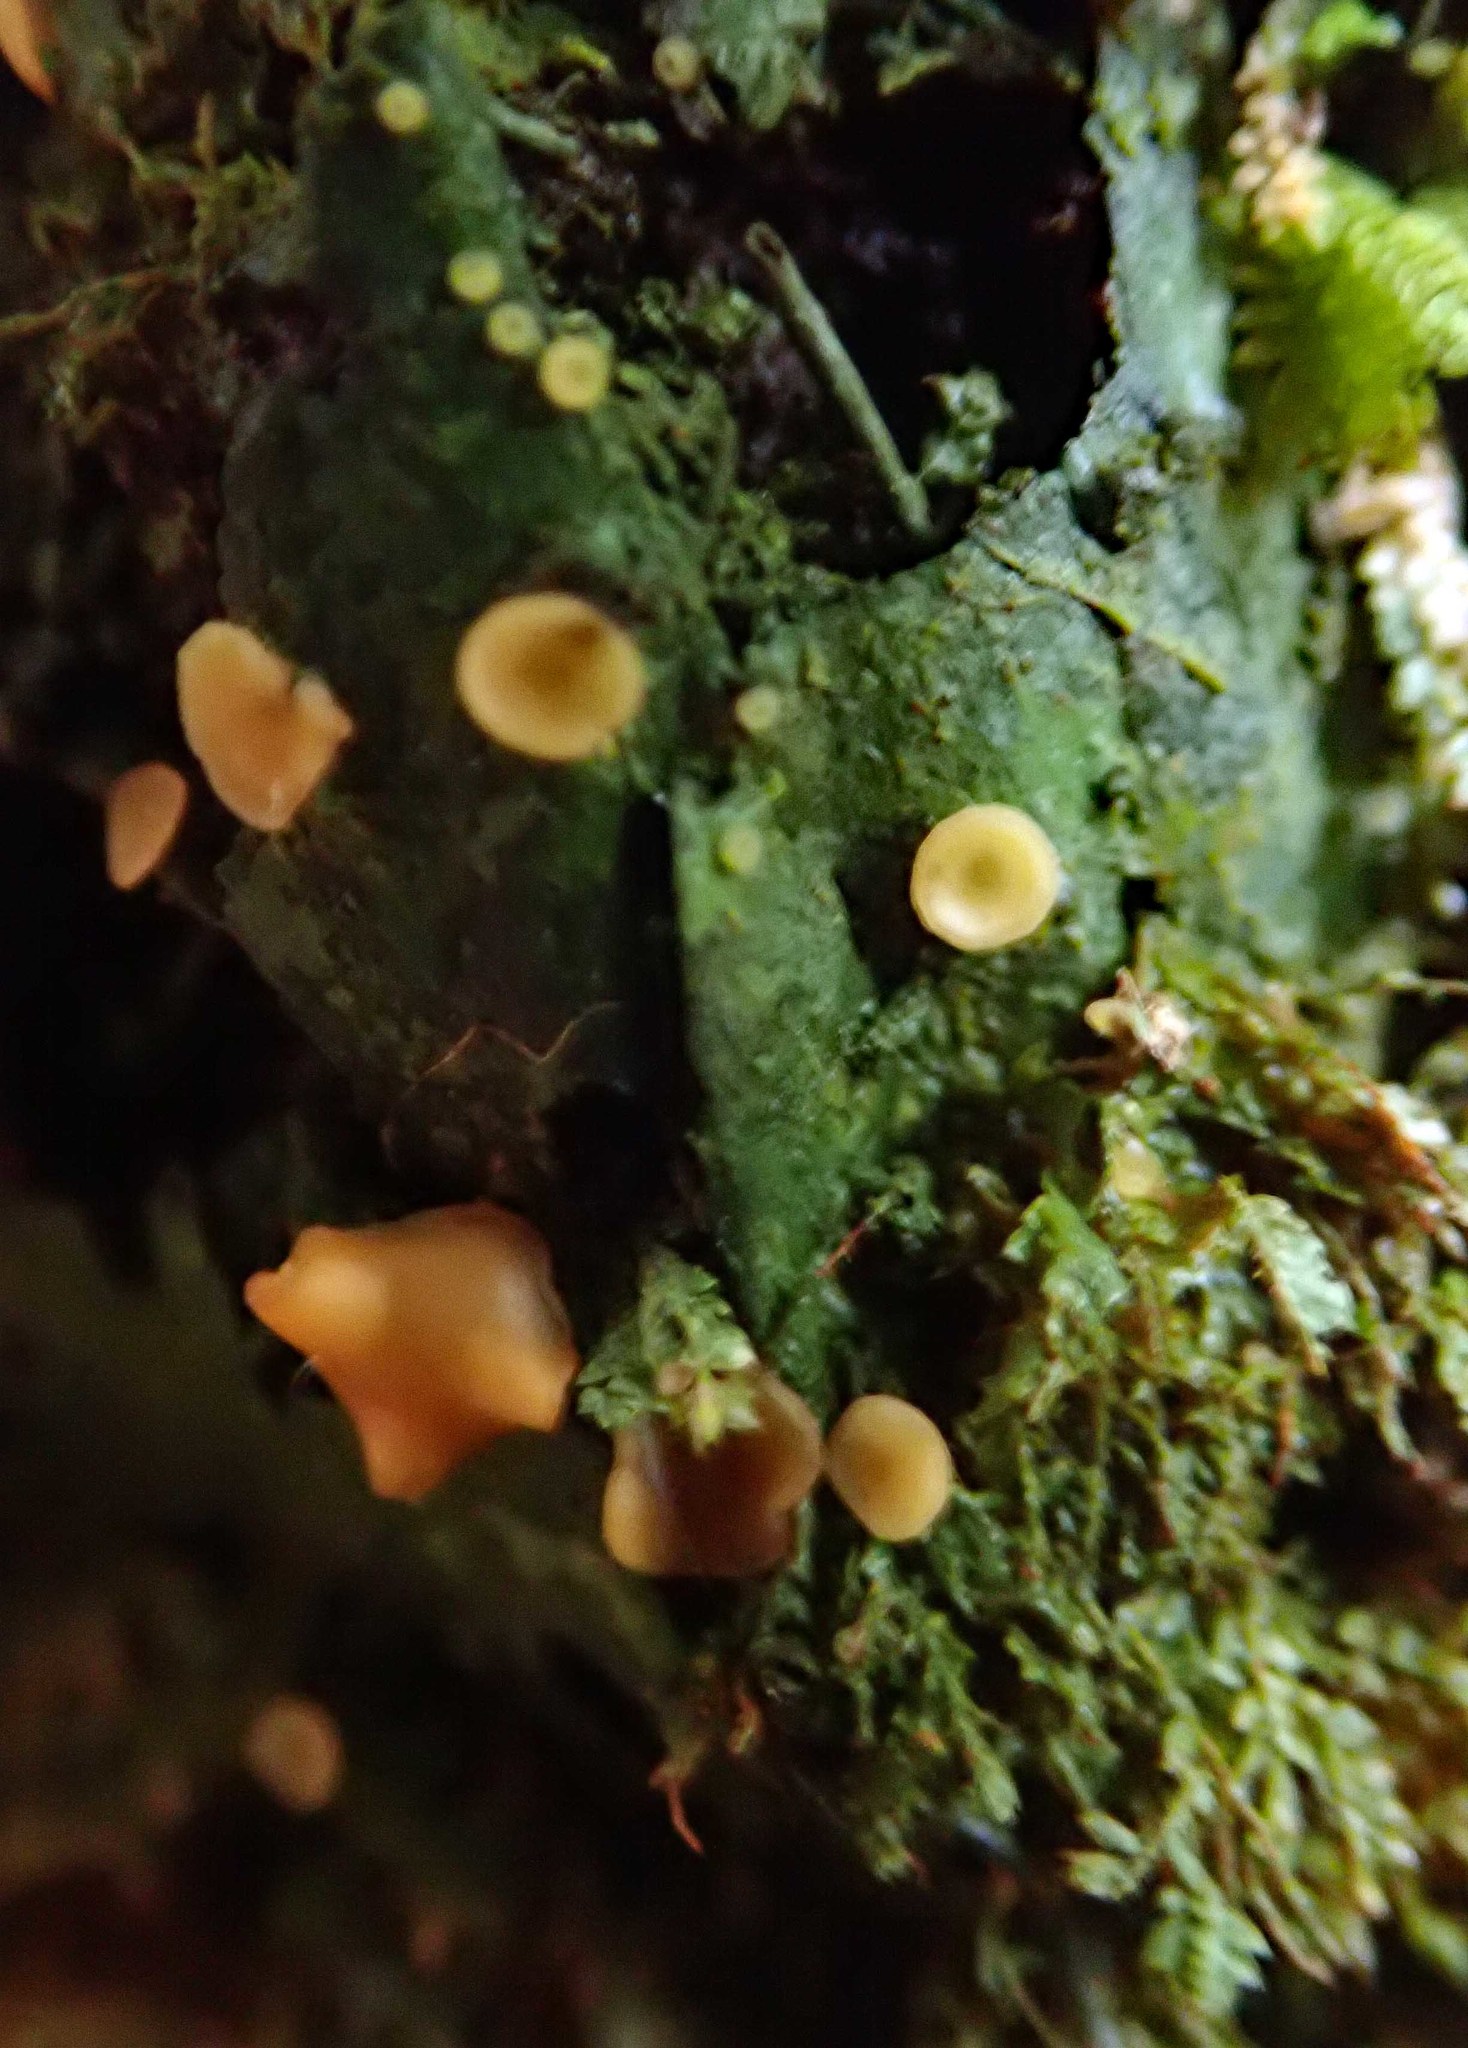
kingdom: Fungi
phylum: Ascomycota
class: Lecanoromycetes
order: Ostropales
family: Coenogoniaceae
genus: Coenogonium
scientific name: Coenogonium luteum
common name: Orange dimple lichen
